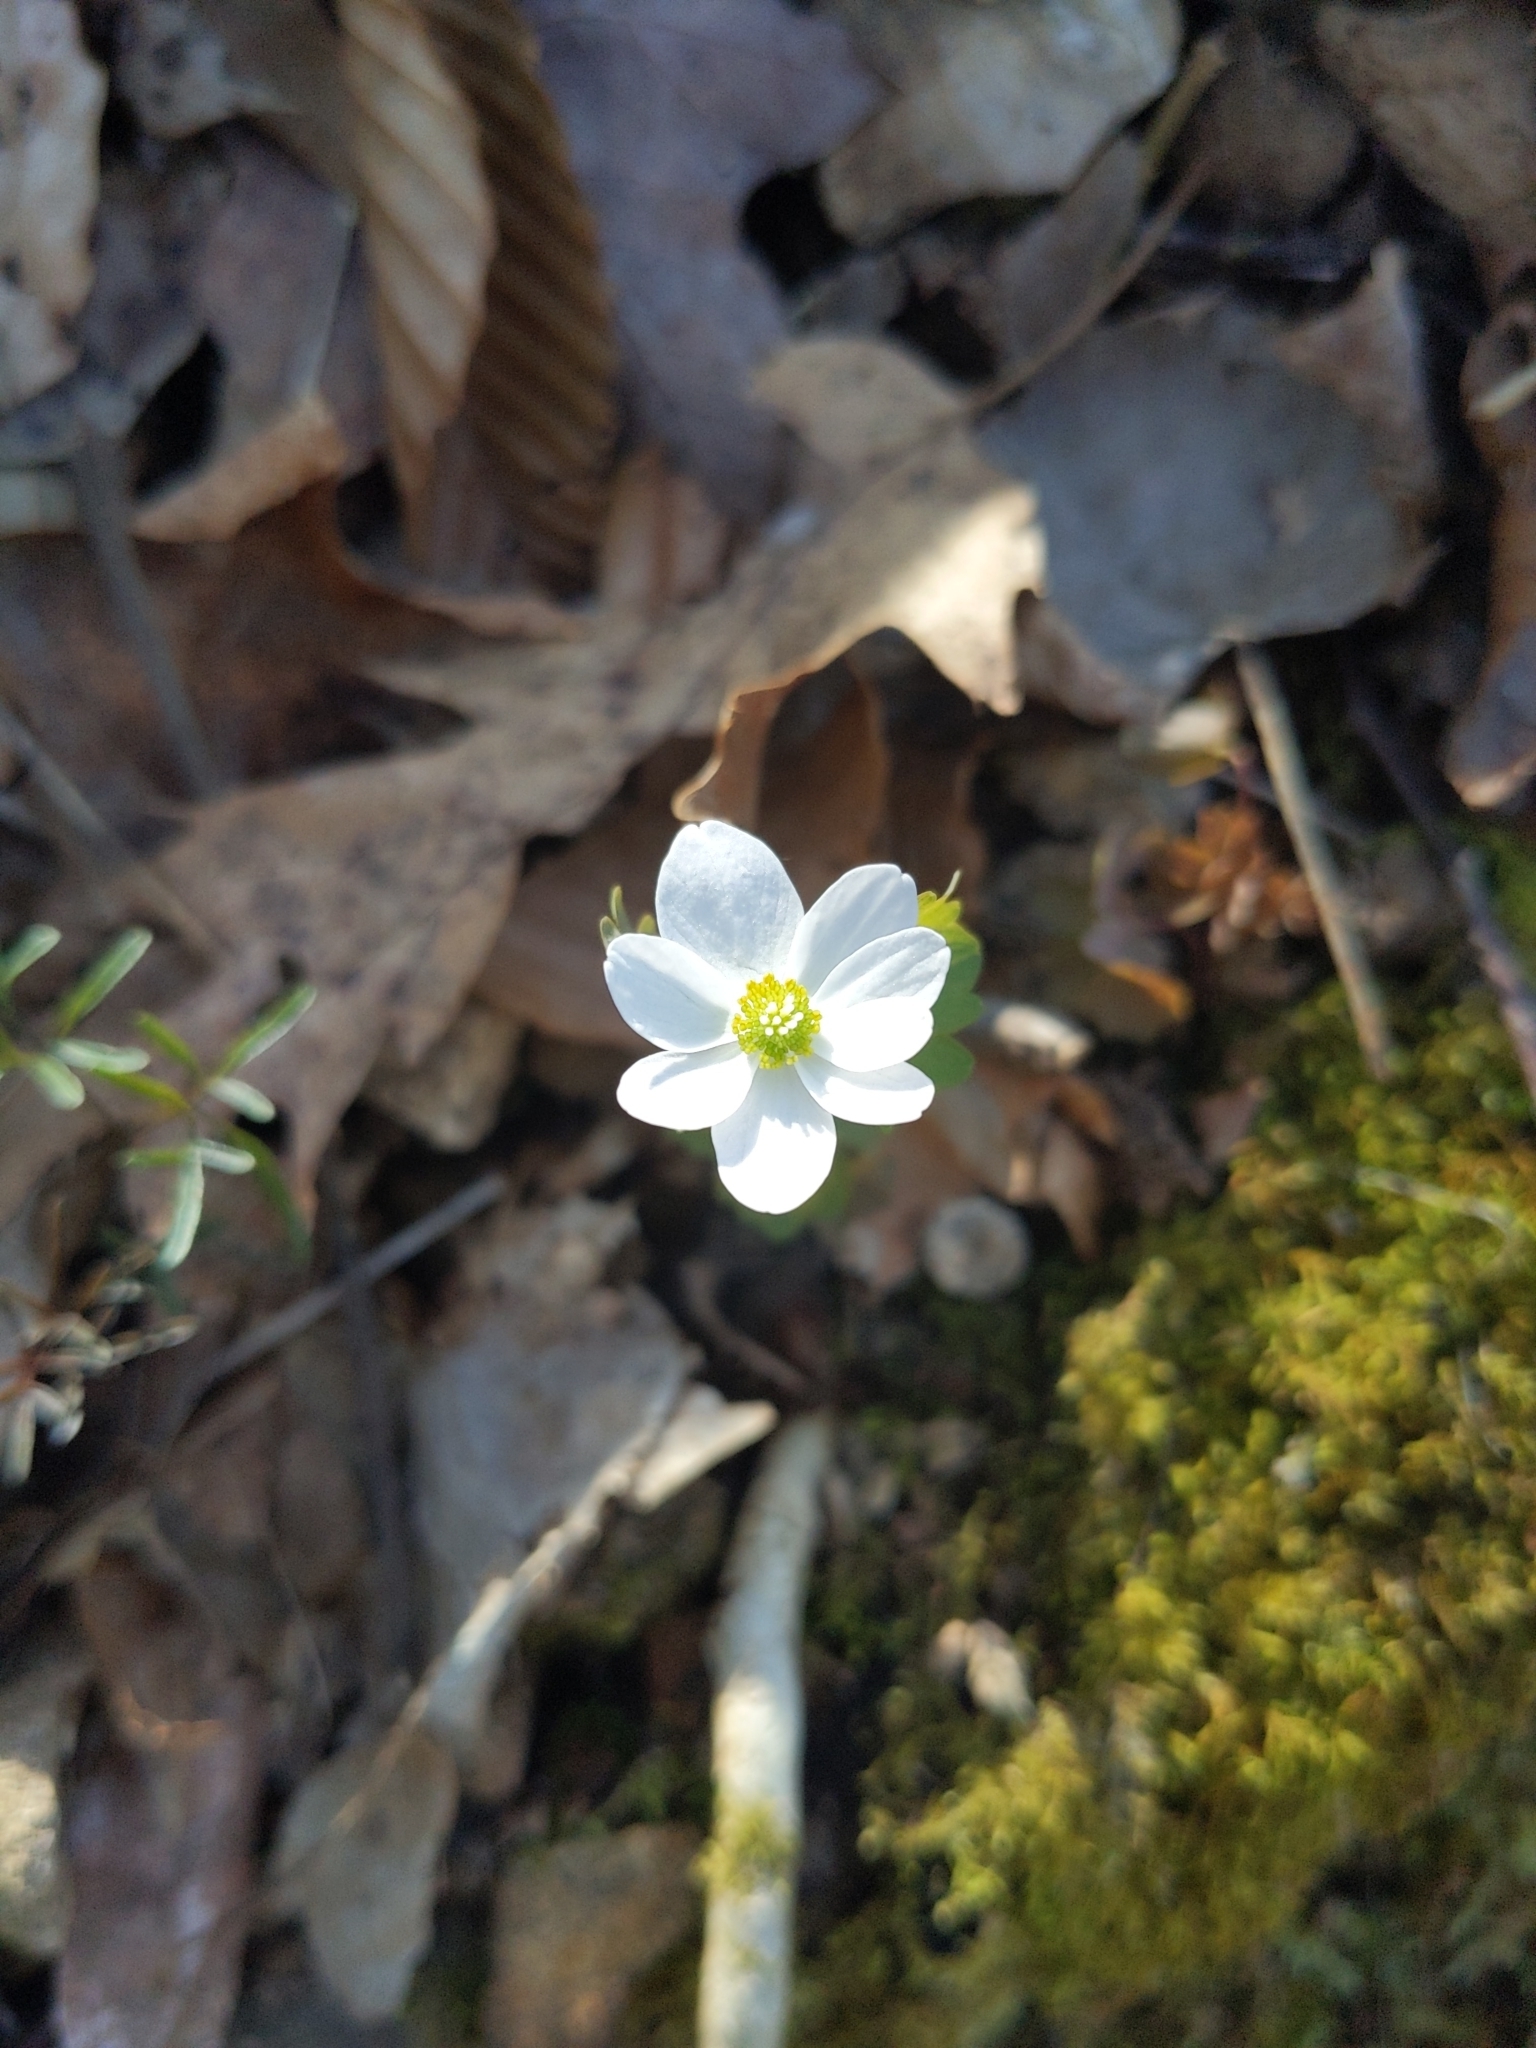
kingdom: Plantae
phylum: Tracheophyta
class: Magnoliopsida
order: Ranunculales
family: Ranunculaceae
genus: Thalictrum
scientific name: Thalictrum thalictroides
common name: Rue-anemone
